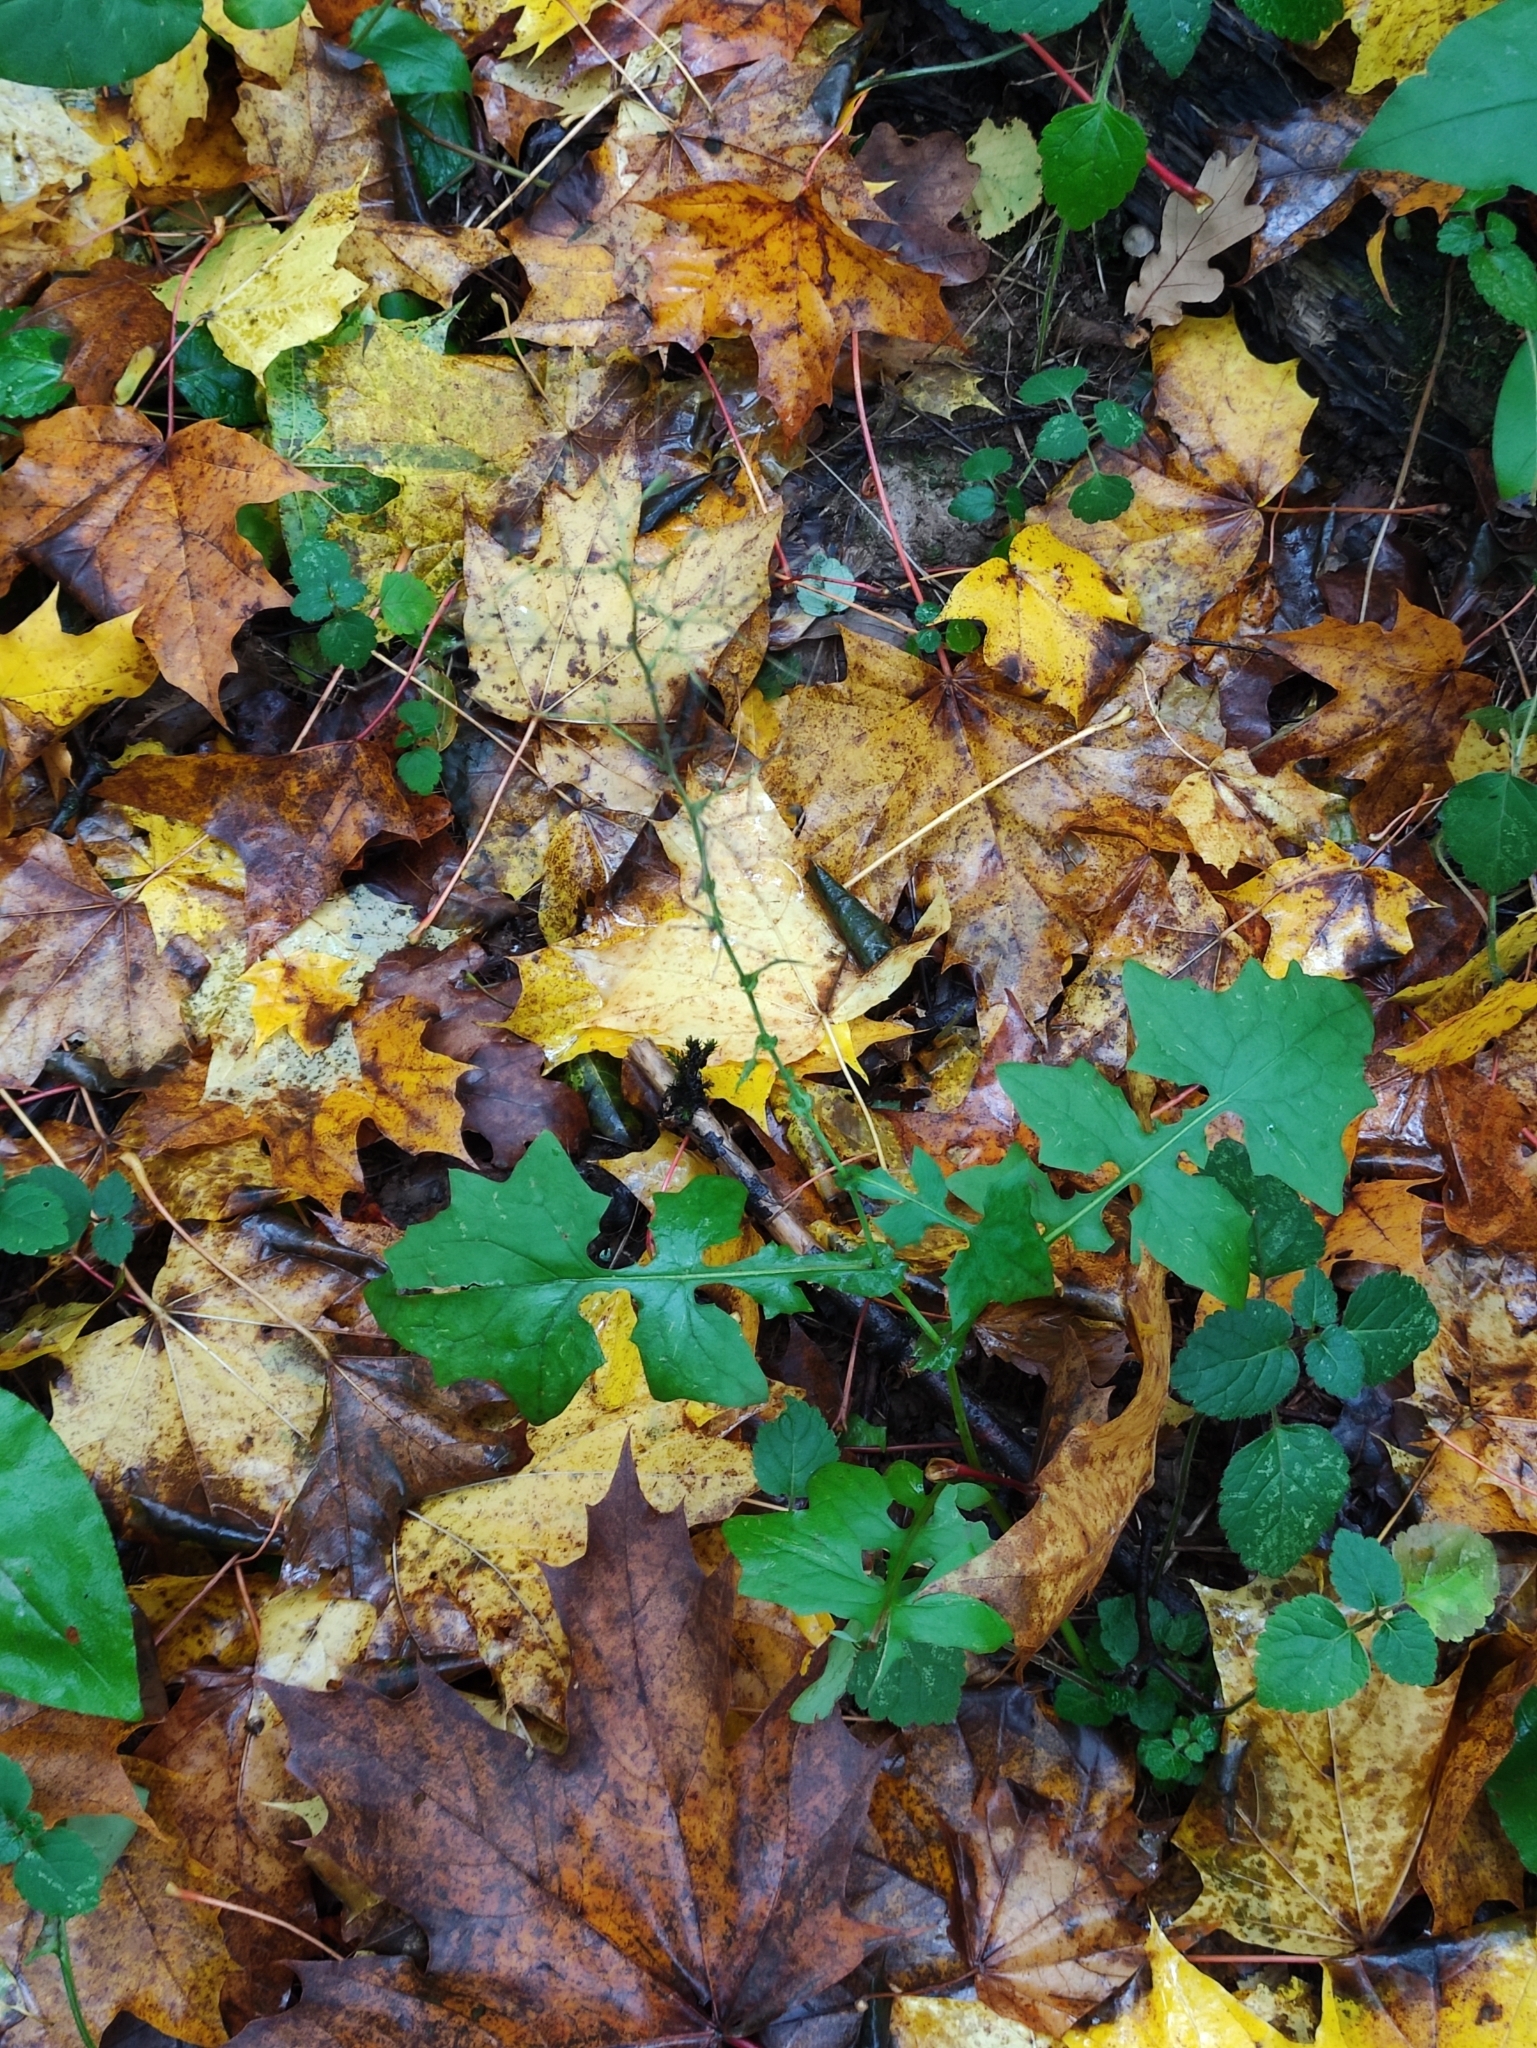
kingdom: Plantae
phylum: Tracheophyta
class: Magnoliopsida
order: Asterales
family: Asteraceae
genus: Mycelis
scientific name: Mycelis muralis
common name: Wall lettuce
